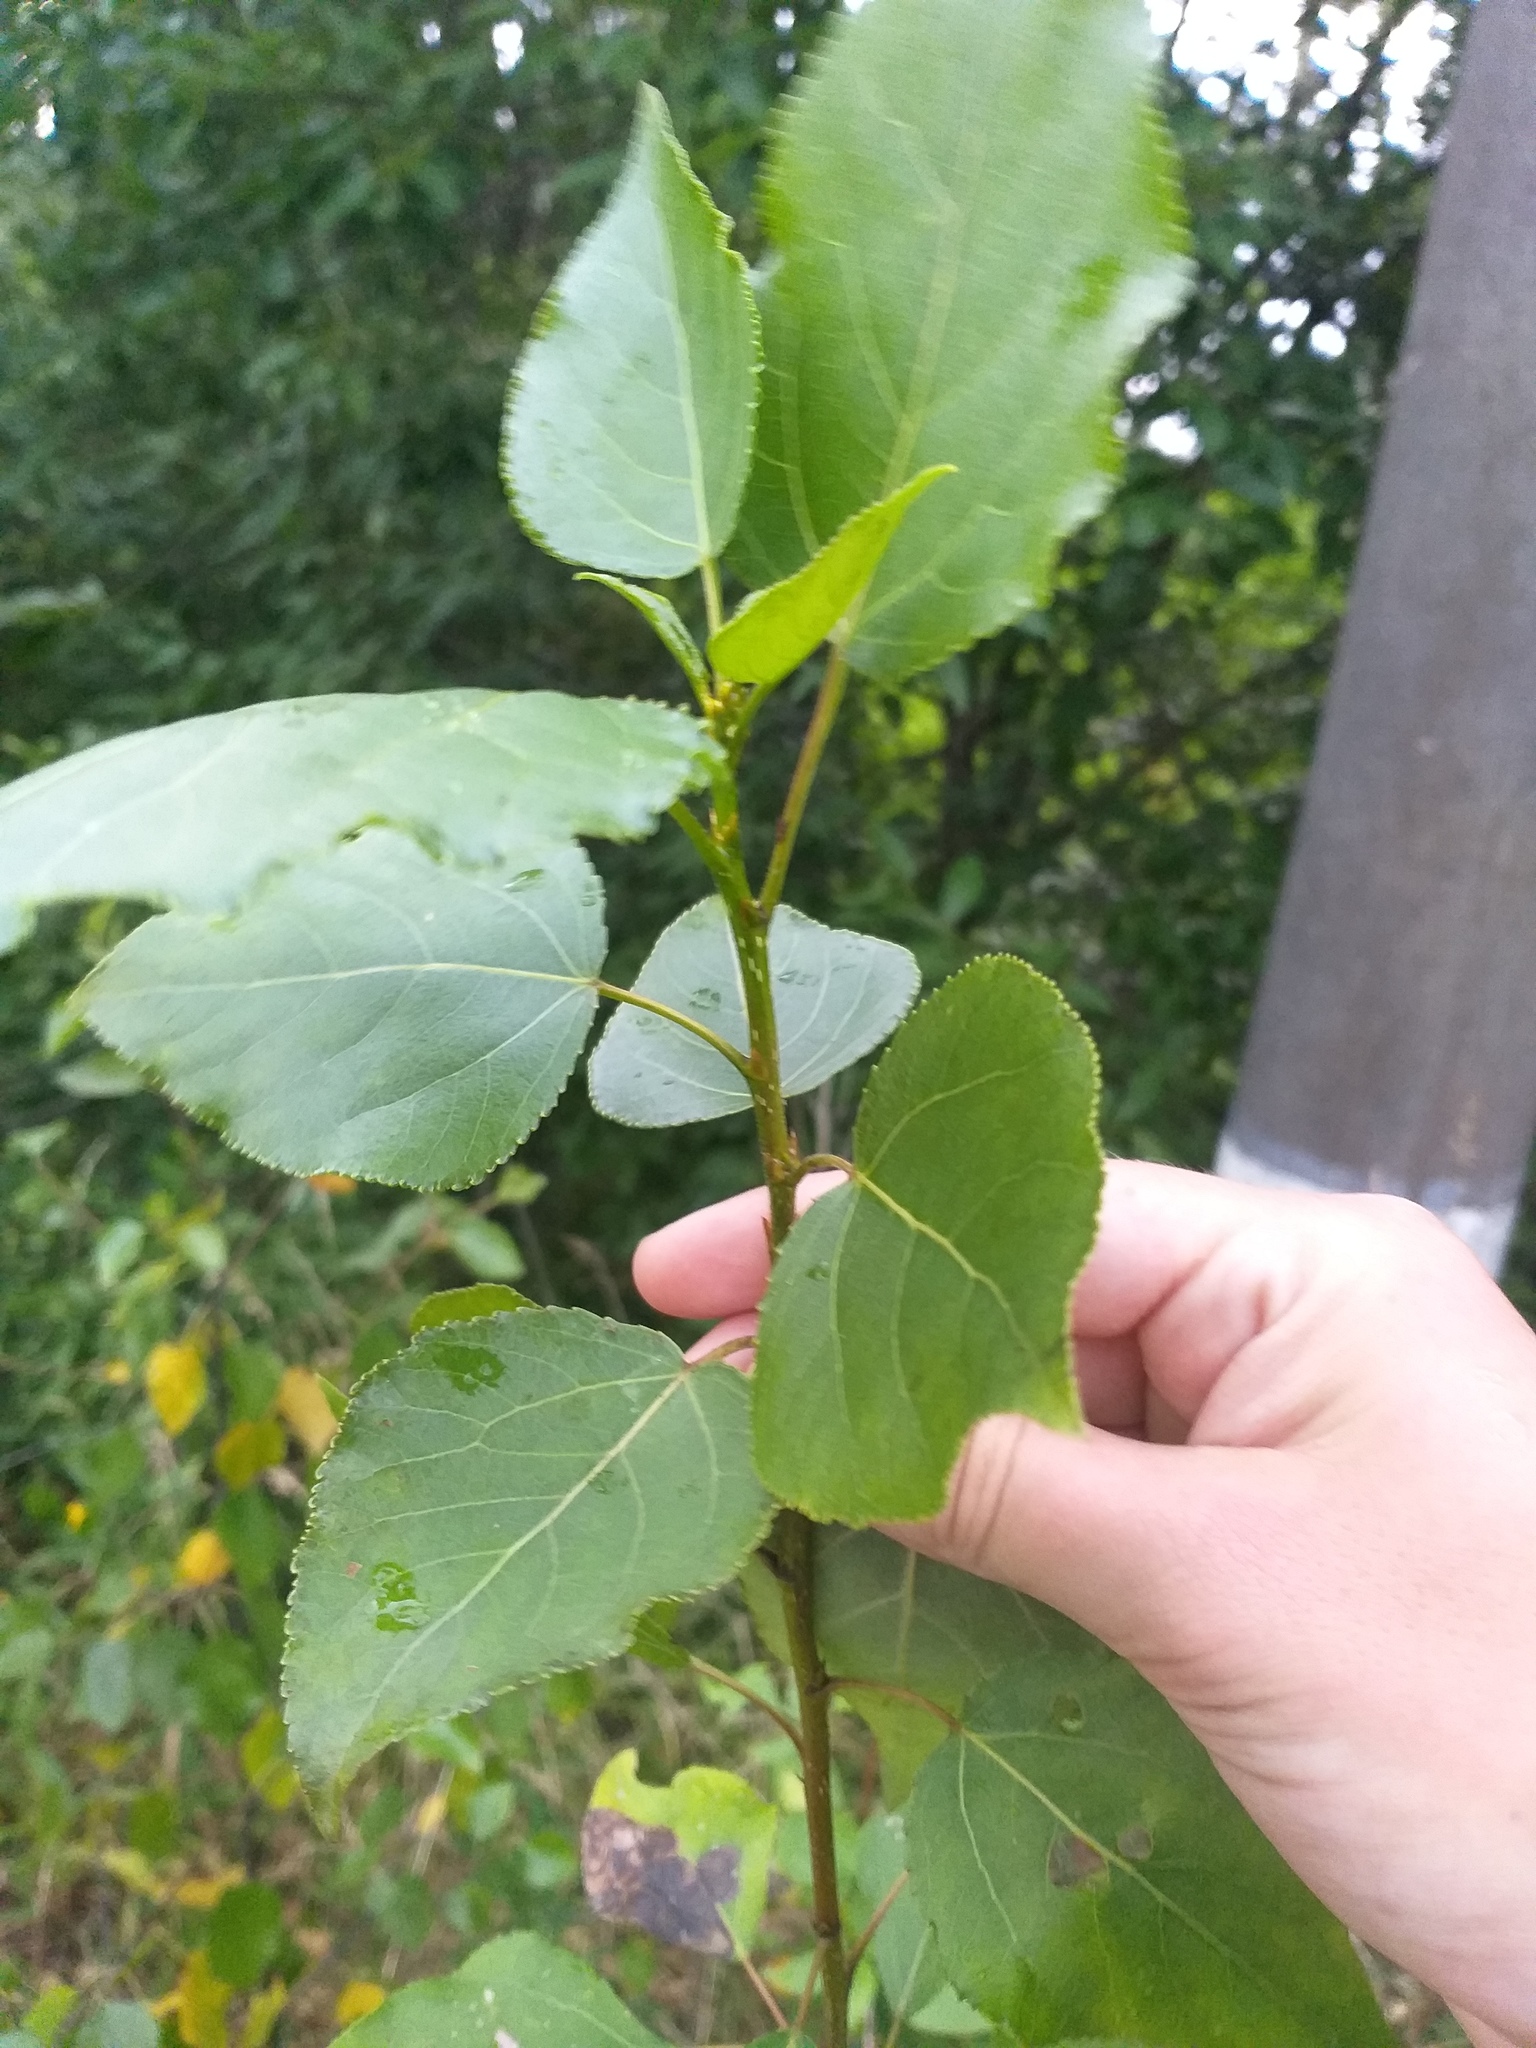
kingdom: Plantae
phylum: Tracheophyta
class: Magnoliopsida
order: Malpighiales
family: Salicaceae
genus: Populus
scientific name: Populus
